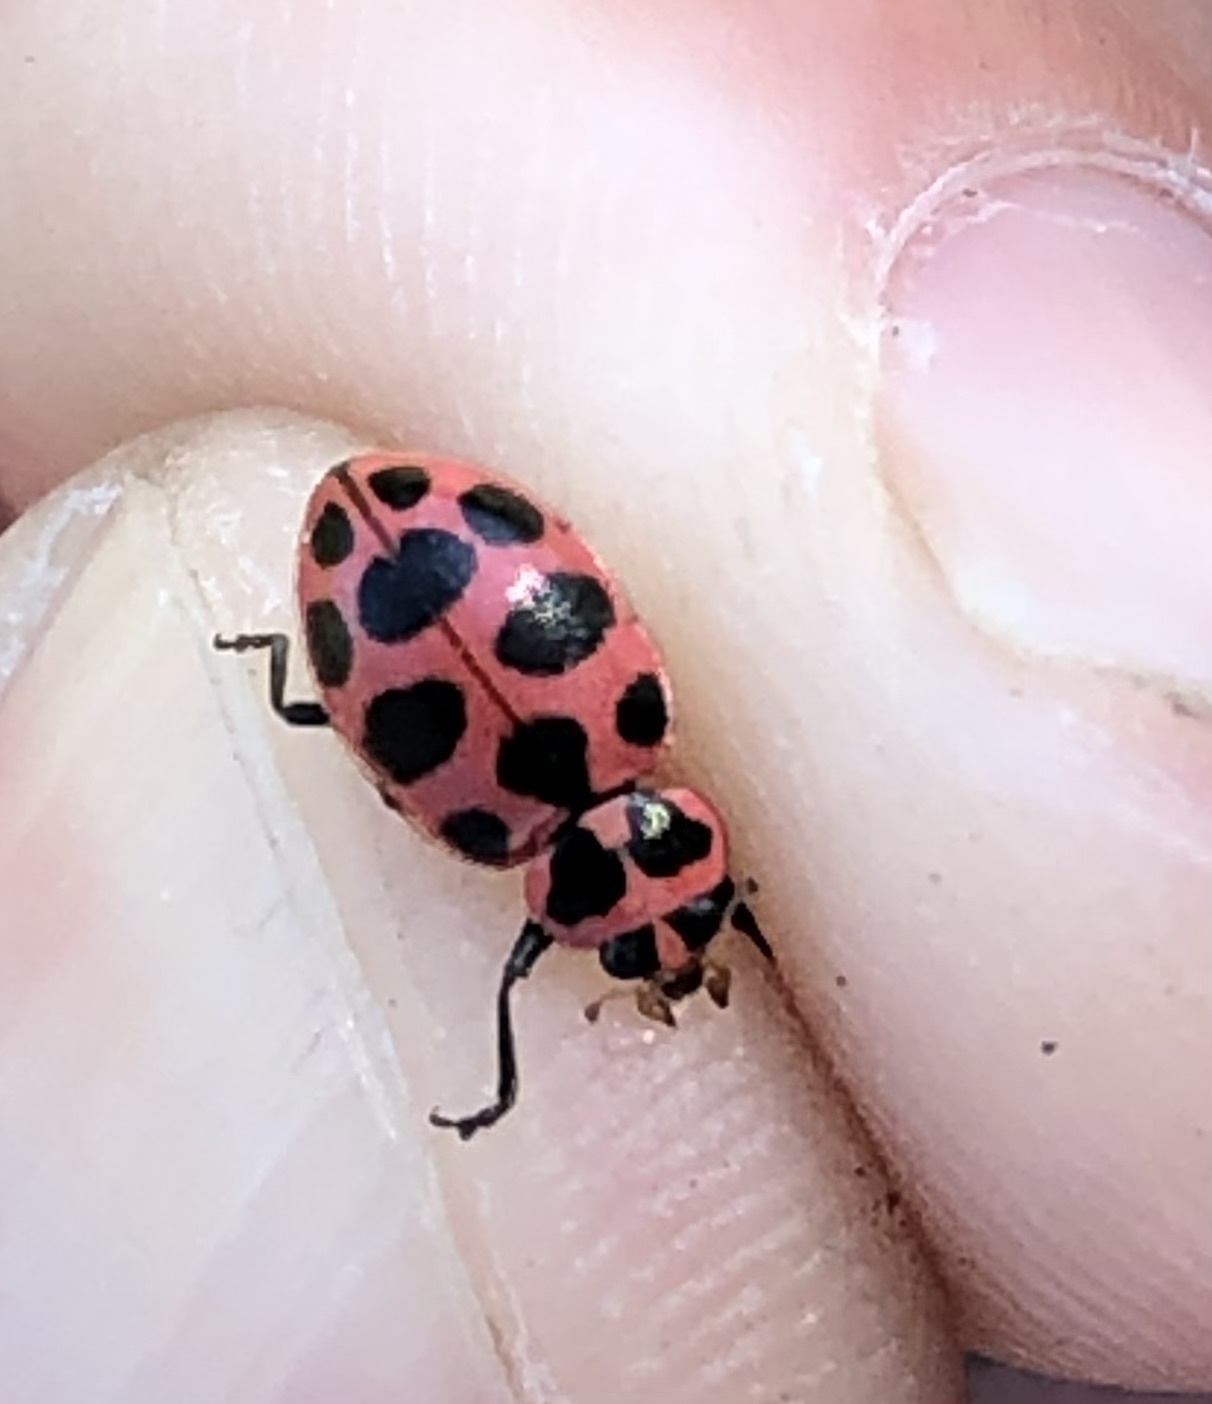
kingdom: Animalia
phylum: Arthropoda
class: Insecta
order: Coleoptera
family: Coccinellidae
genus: Coleomegilla
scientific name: Coleomegilla maculata
